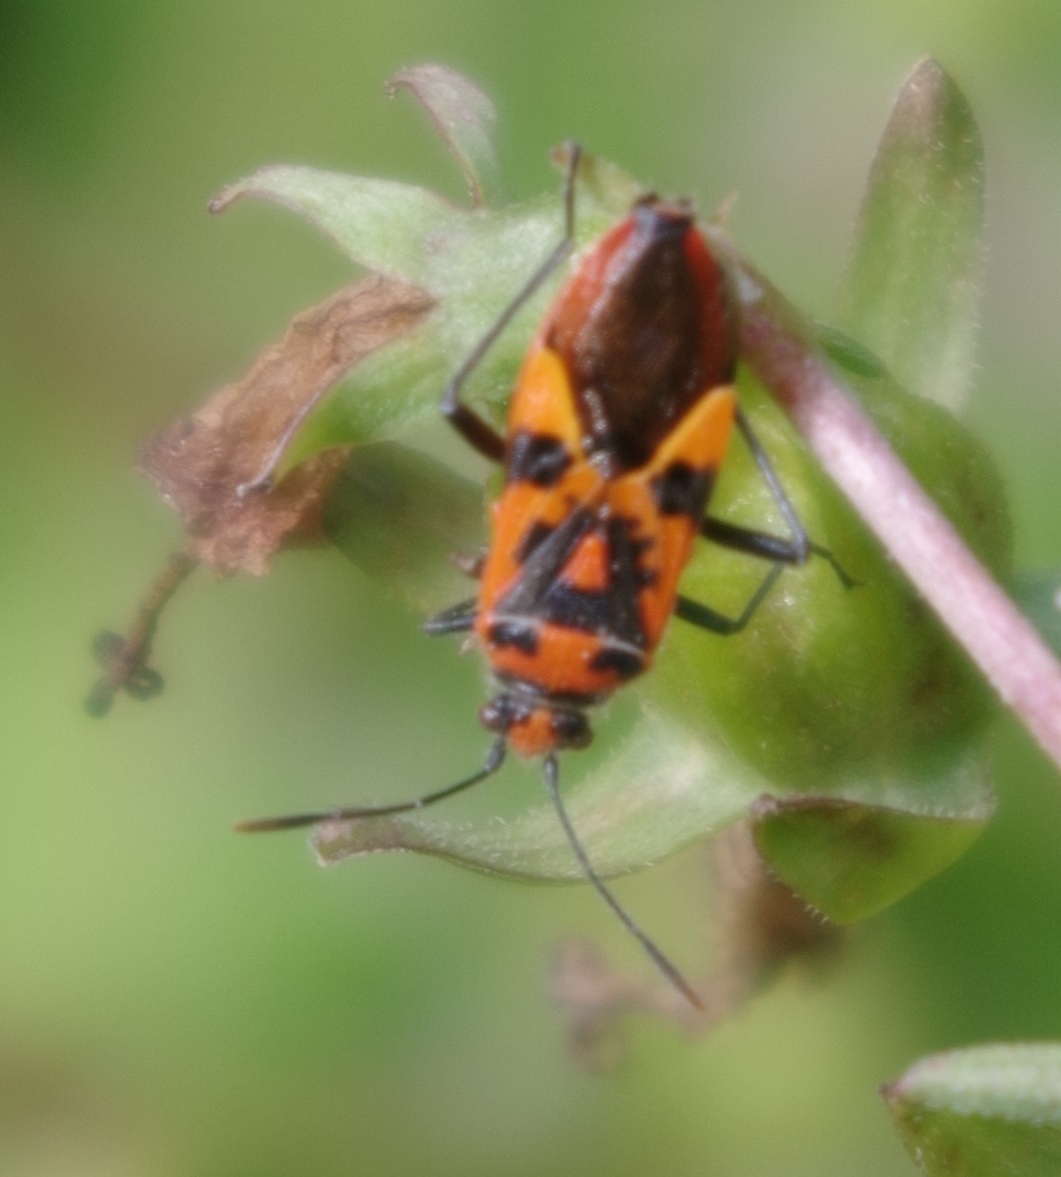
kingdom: Animalia
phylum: Arthropoda
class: Insecta
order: Hemiptera
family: Rhopalidae
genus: Corizus
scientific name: Corizus hyoscyami
